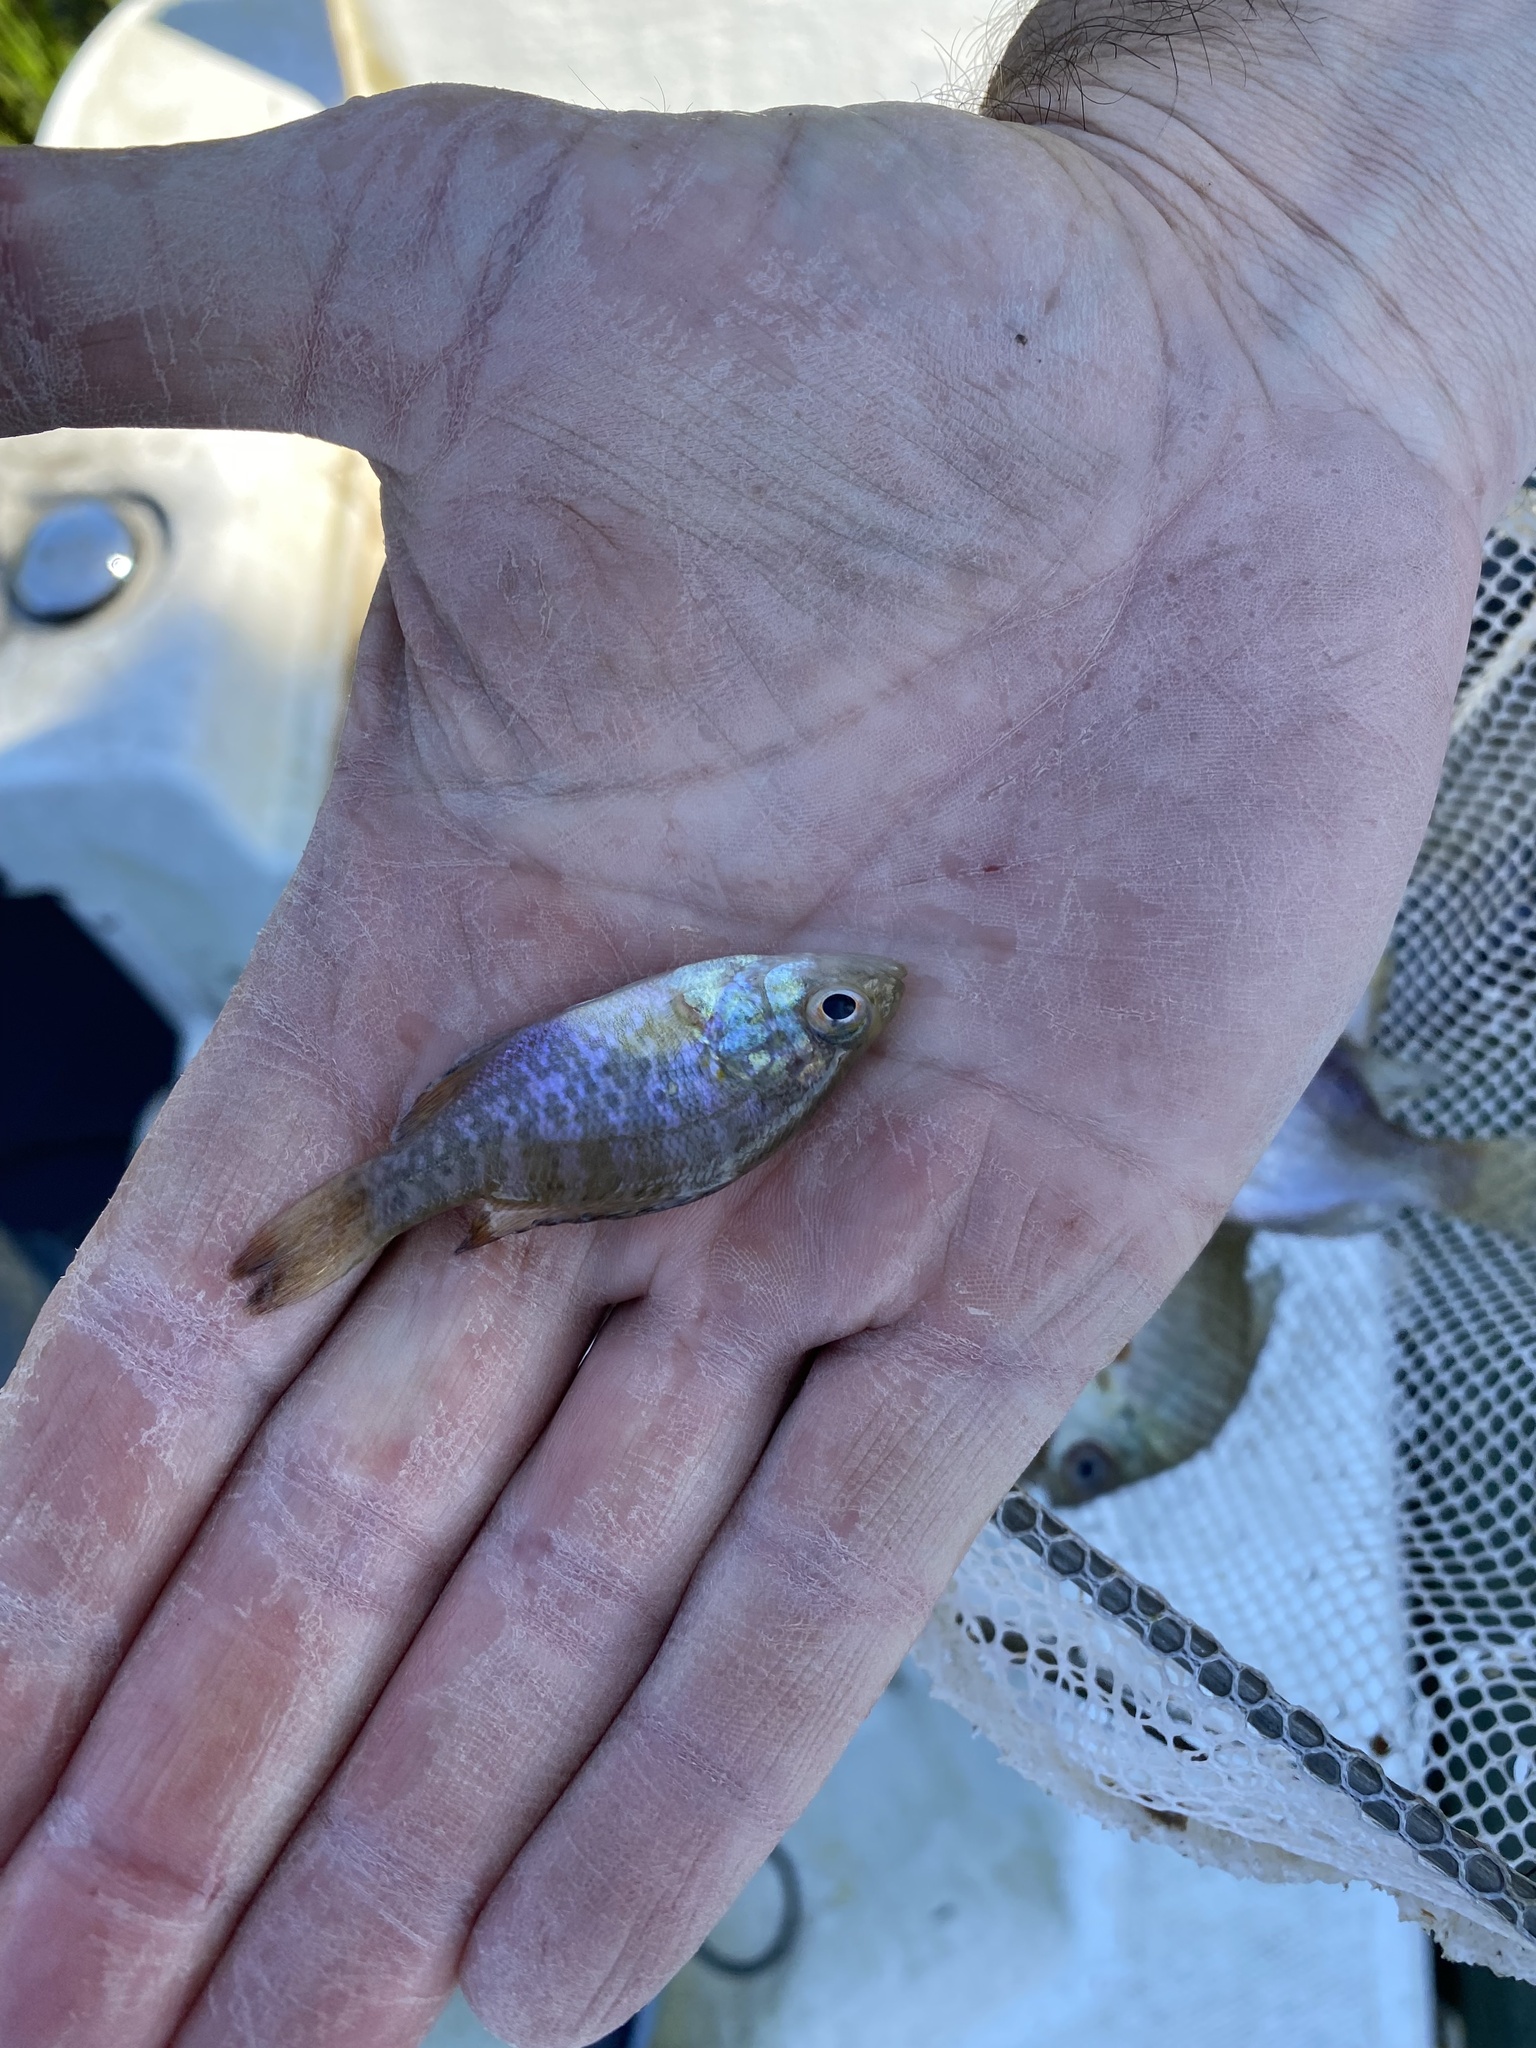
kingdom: Animalia
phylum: Chordata
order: Perciformes
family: Centrarchidae
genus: Lepomis
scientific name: Lepomis gulosus
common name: Warmouth
